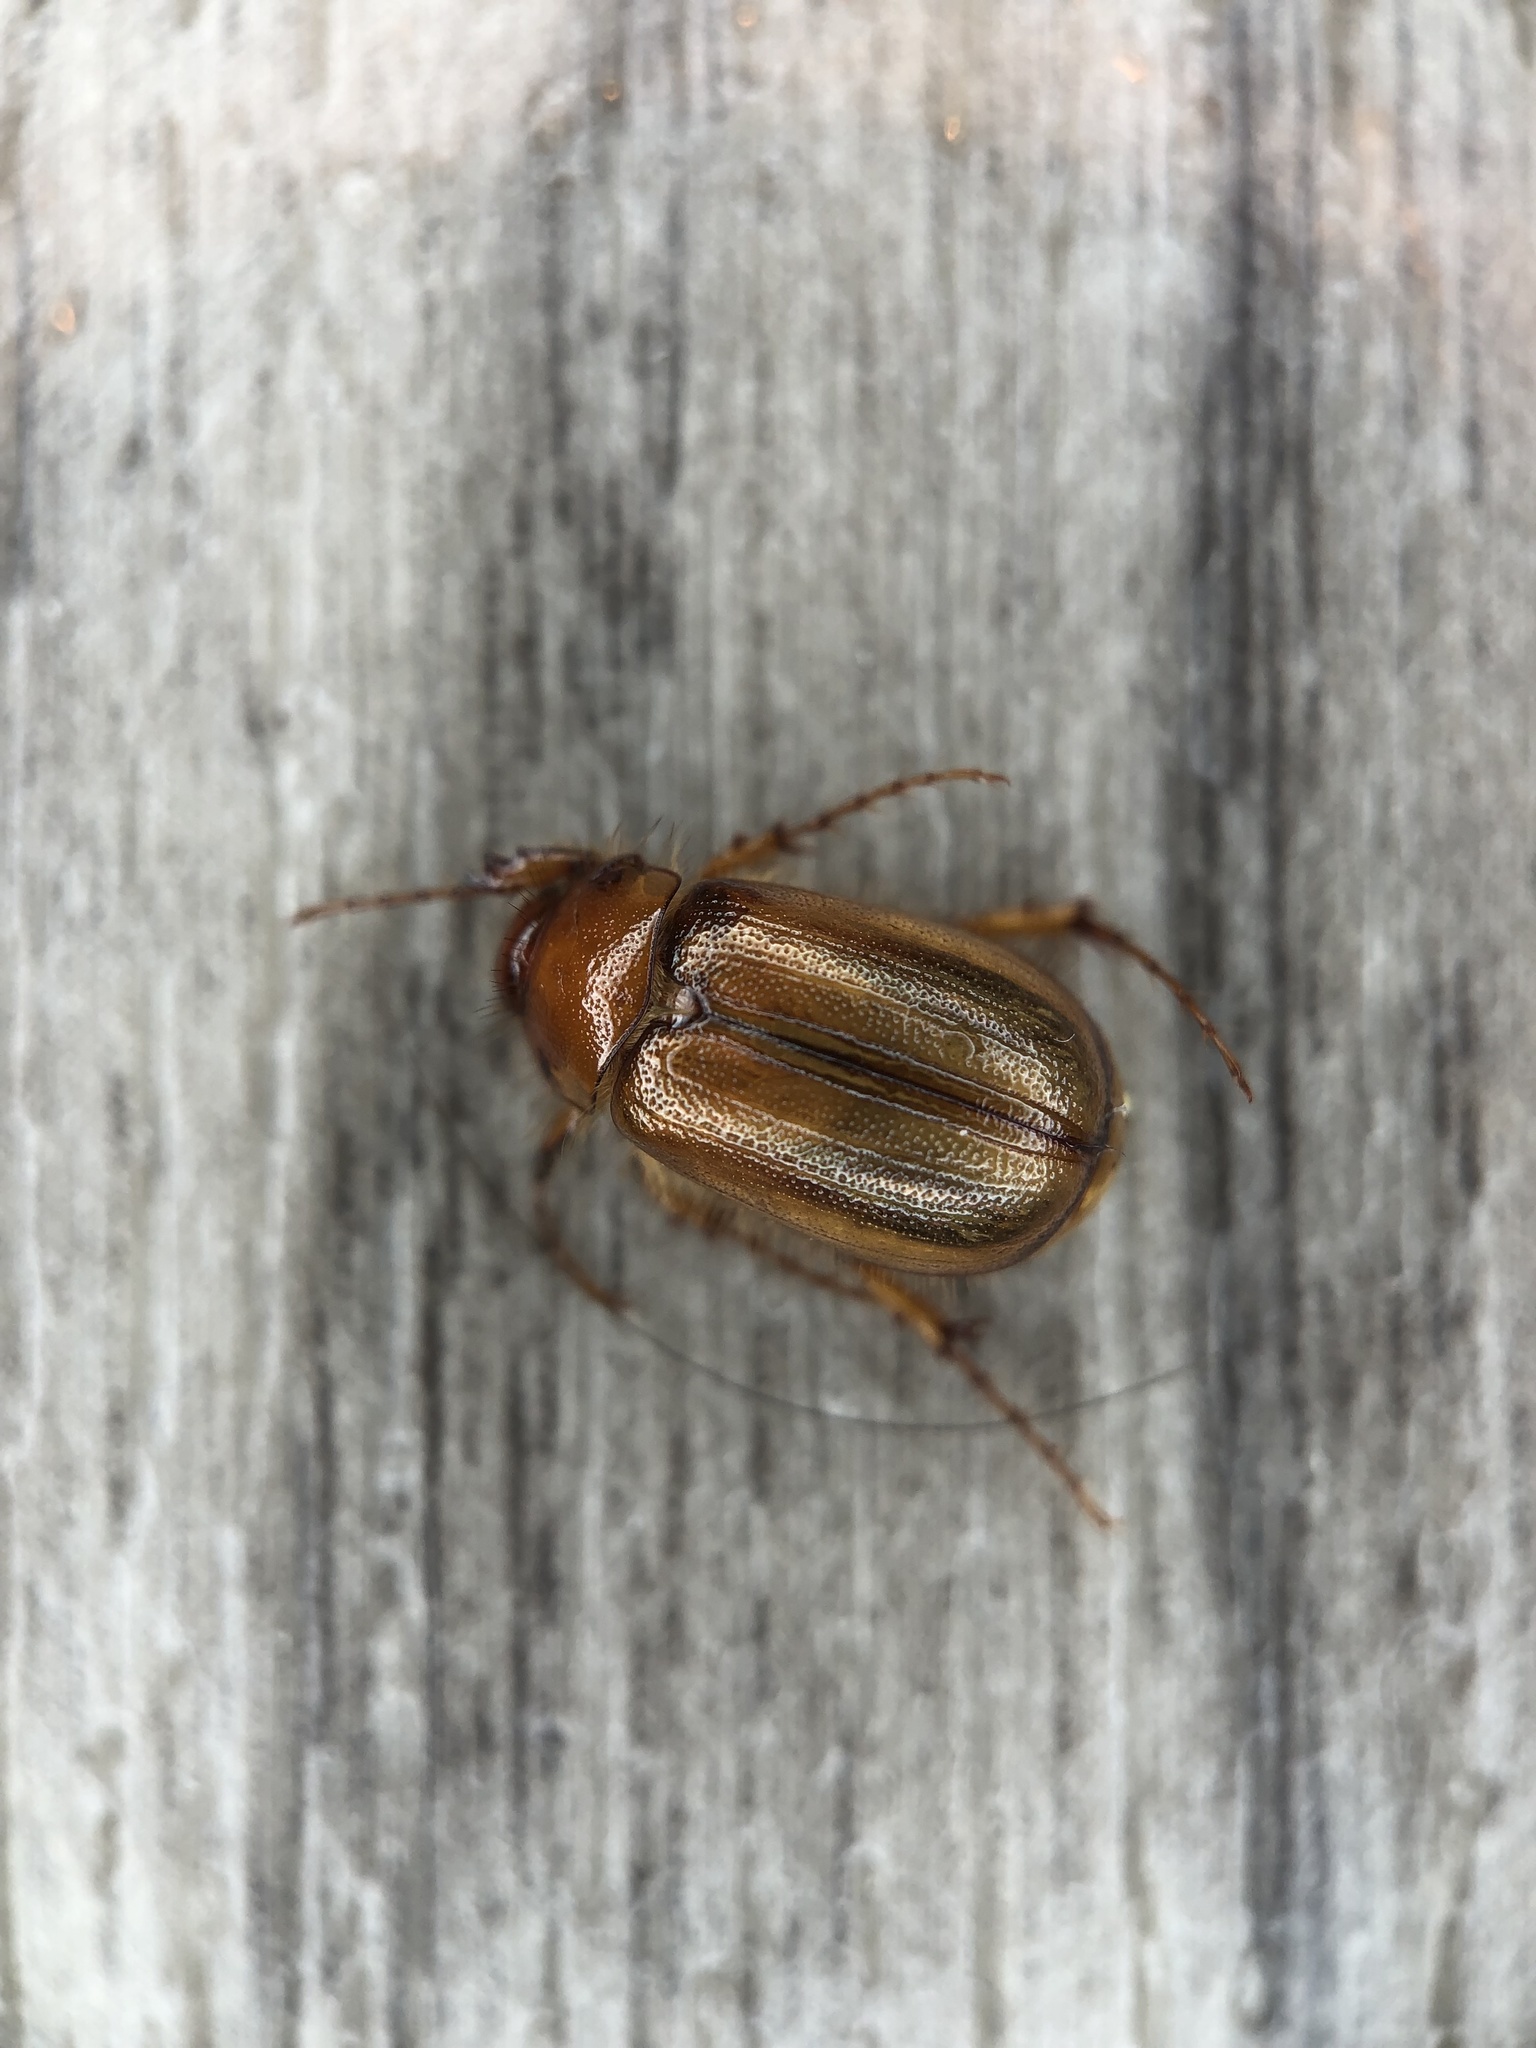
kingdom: Animalia
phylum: Arthropoda
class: Insecta
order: Coleoptera
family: Scarabaeidae
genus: Costelytra
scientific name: Costelytra zealandica
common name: New zealand grass grub
